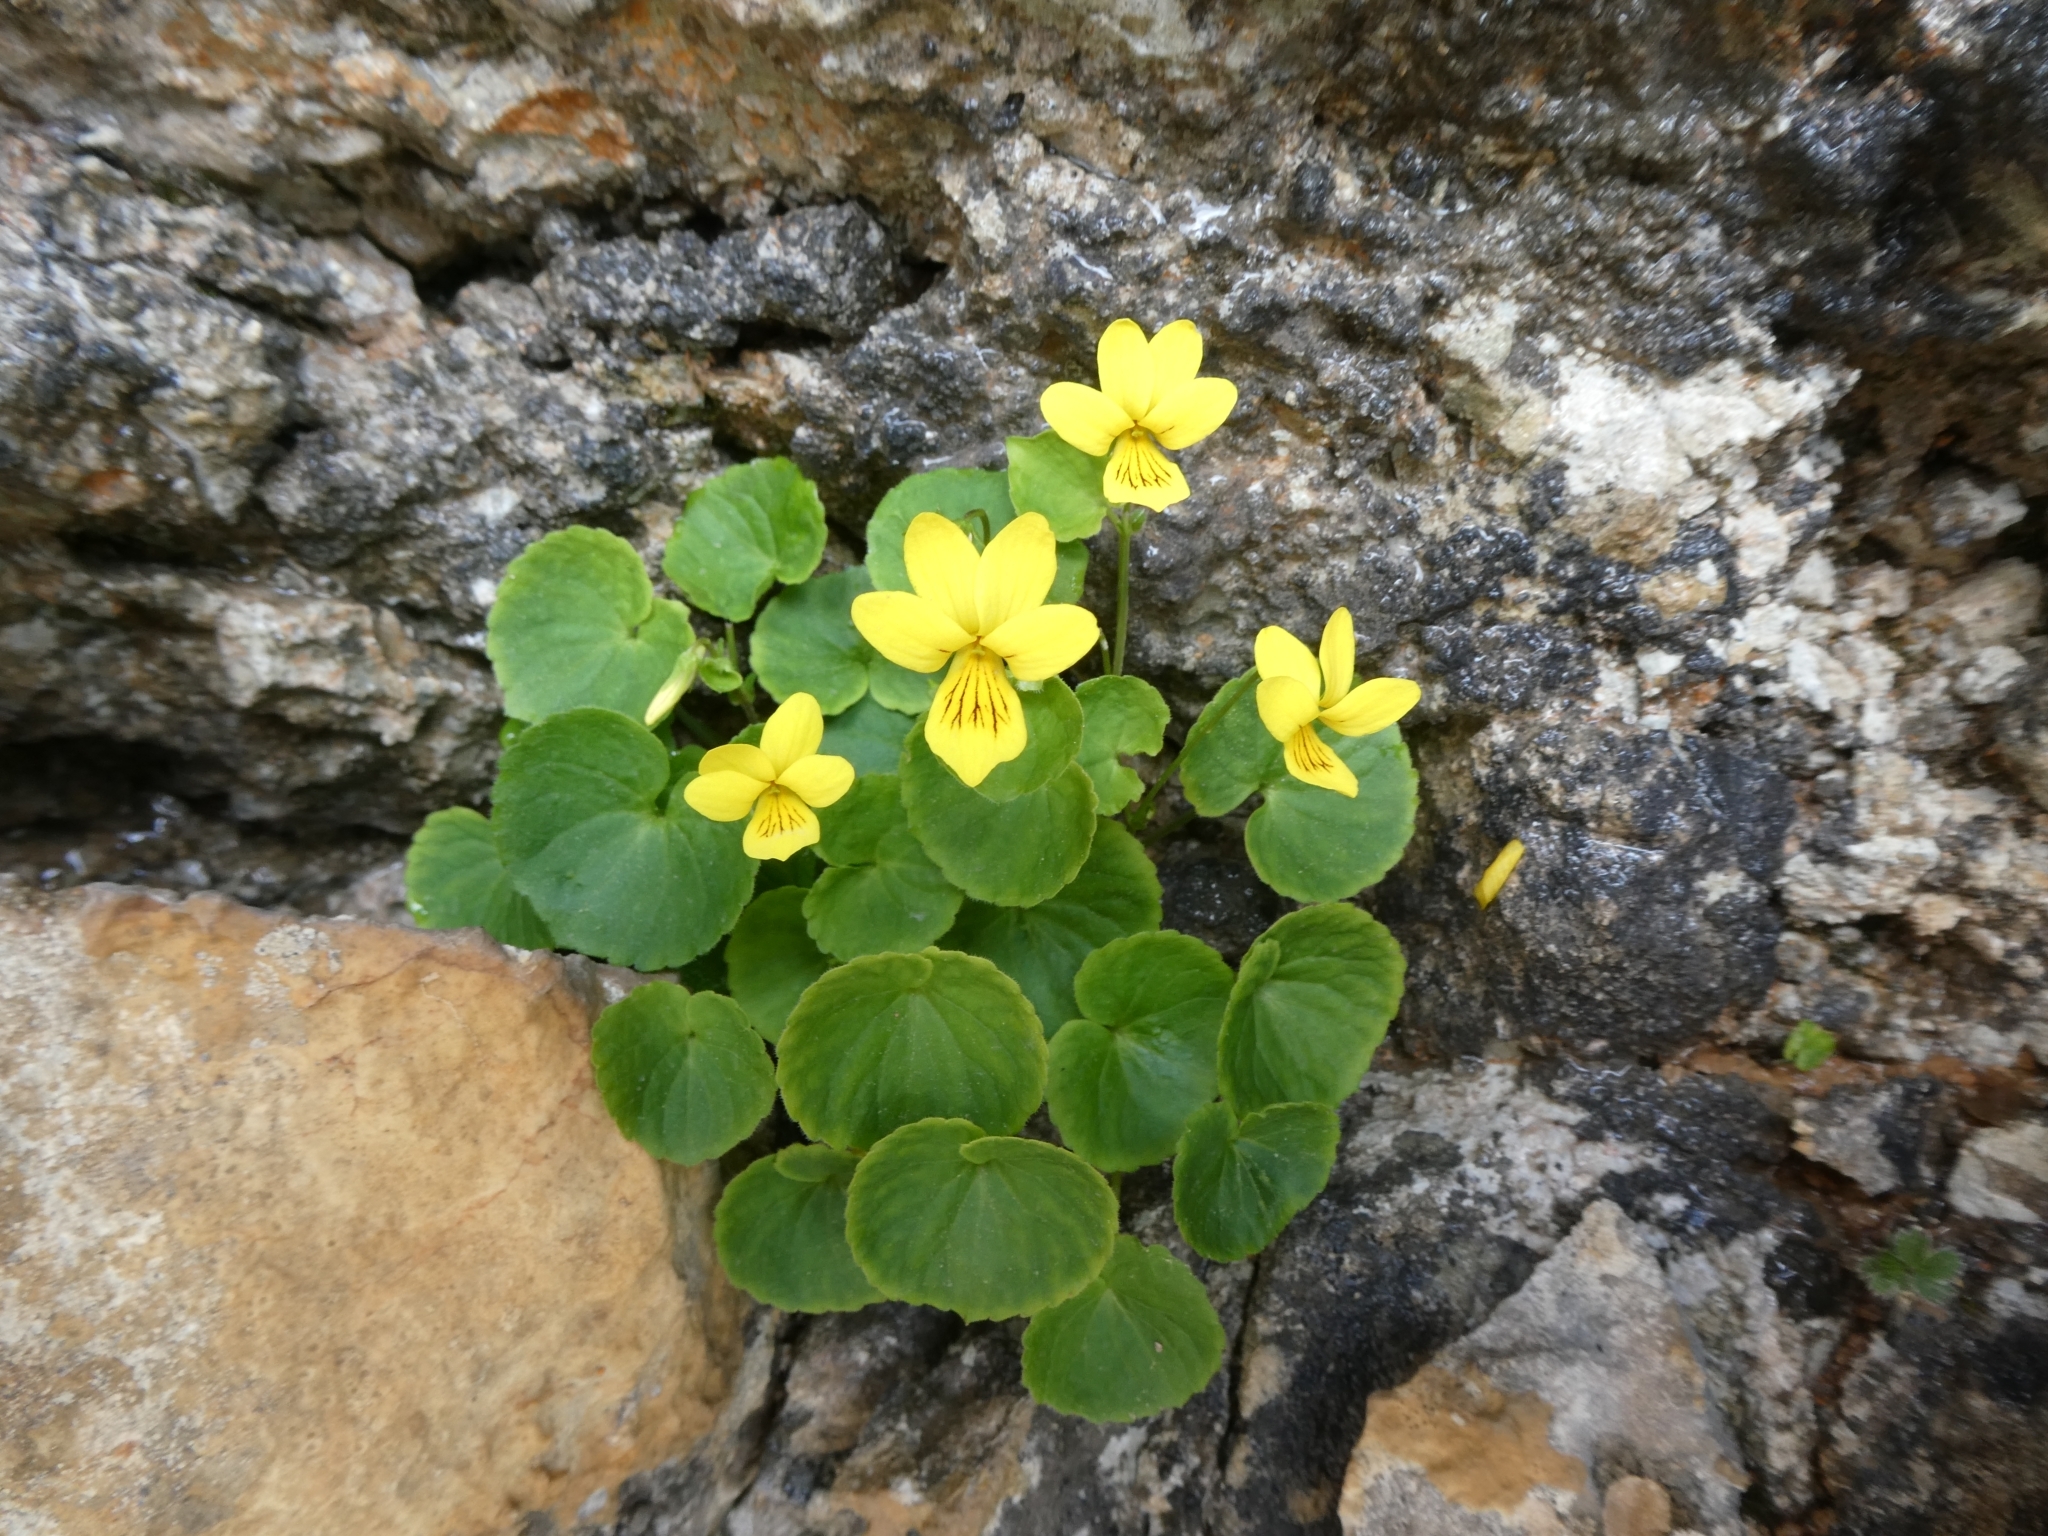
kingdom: Plantae
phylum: Tracheophyta
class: Magnoliopsida
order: Malpighiales
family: Violaceae
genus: Viola
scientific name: Viola biflora
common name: Alpine yellow violet
